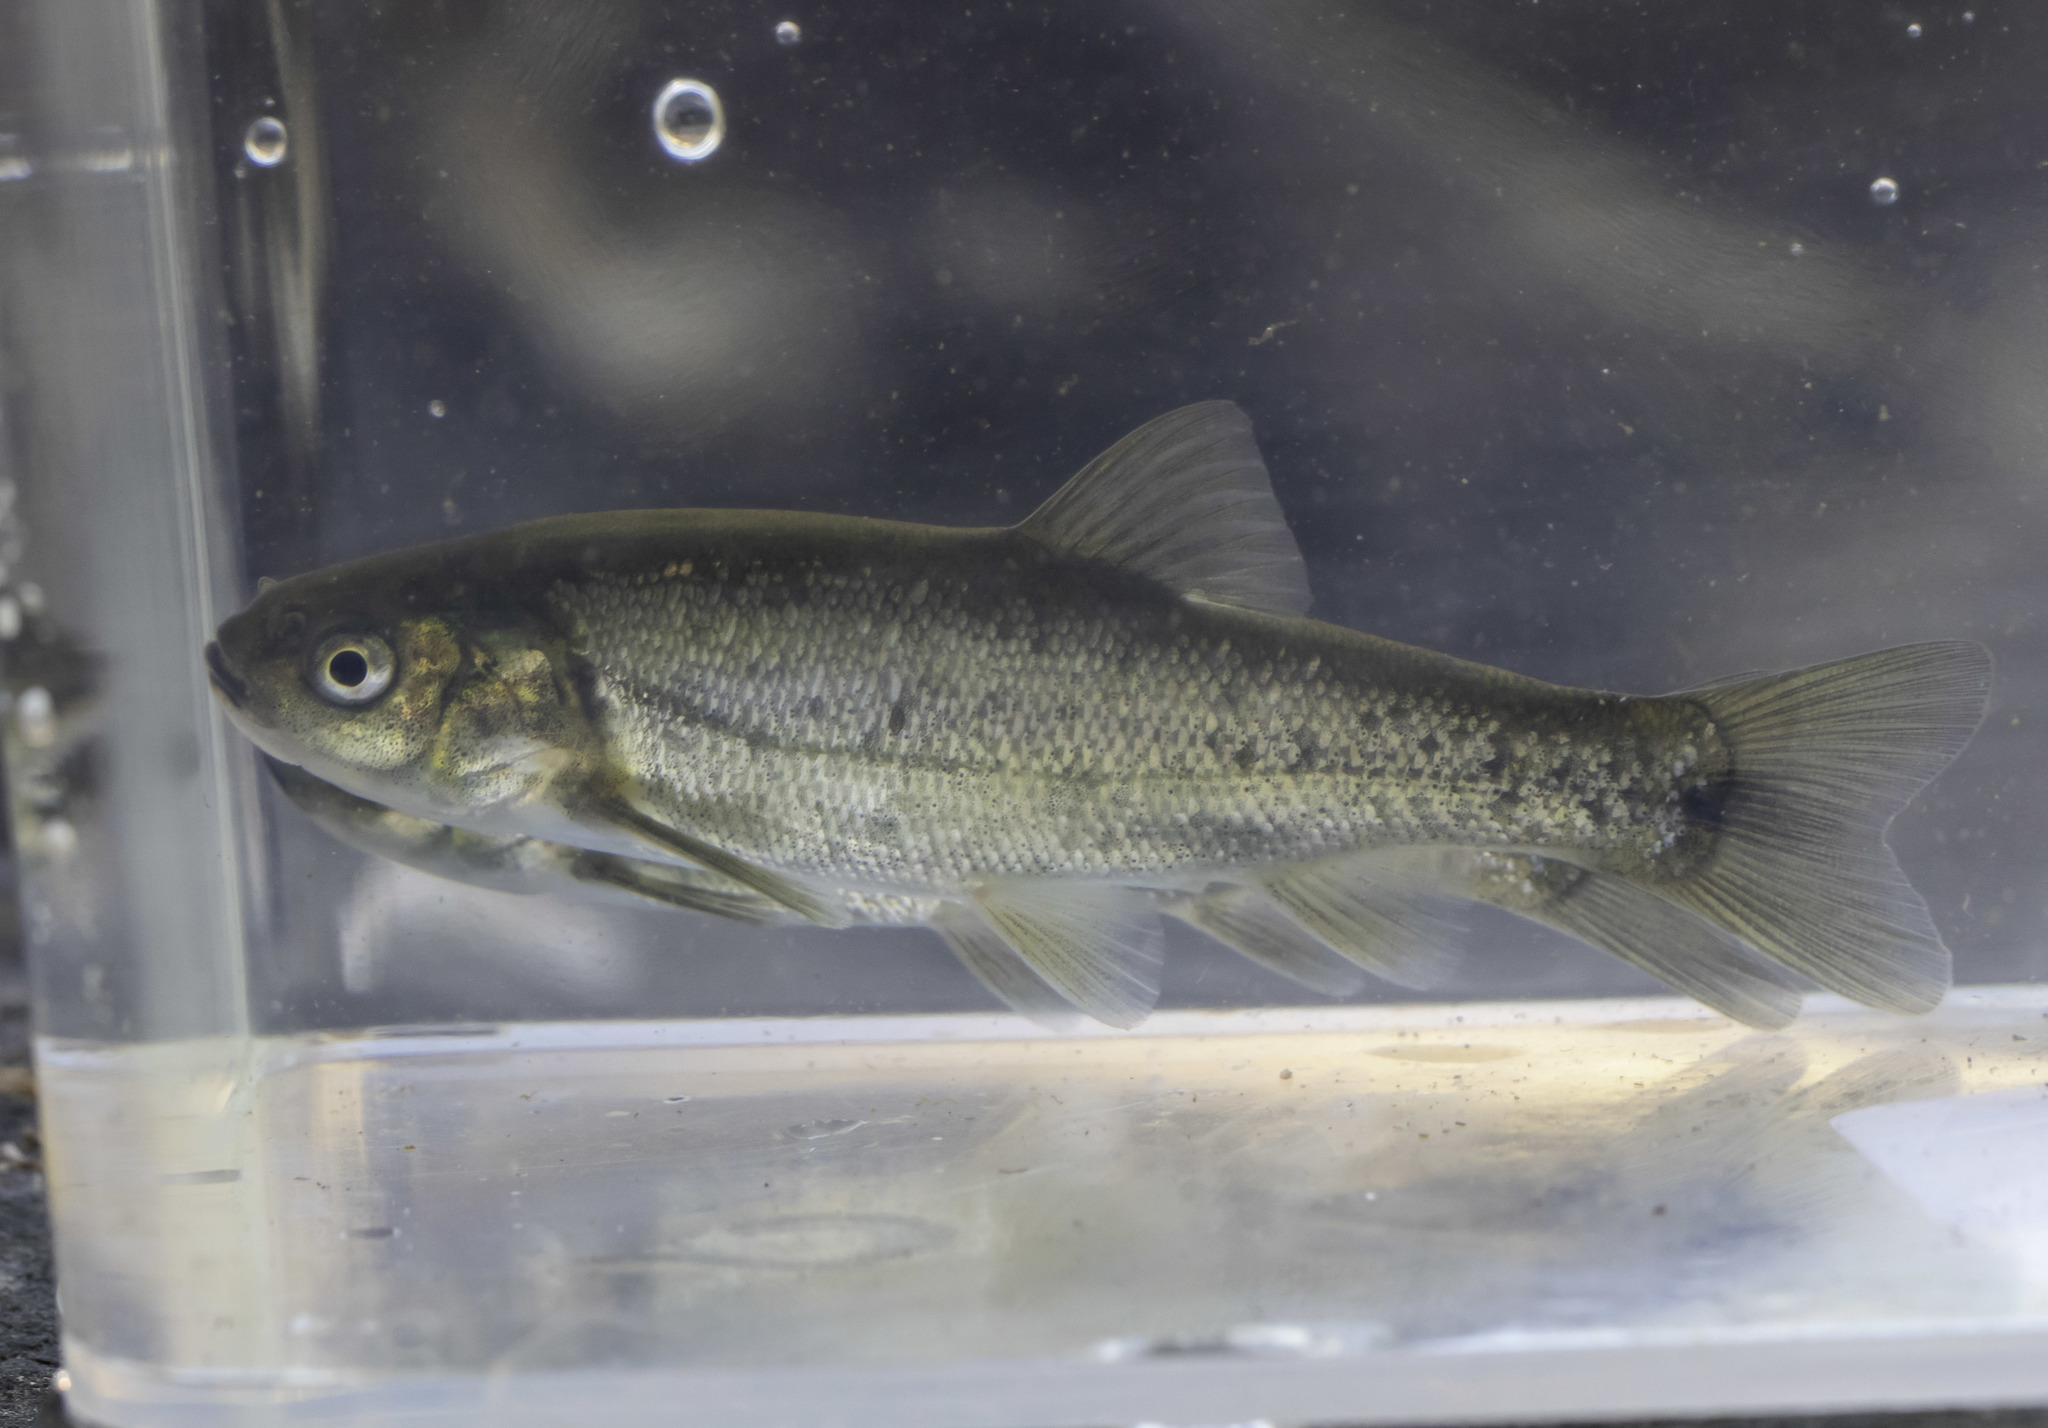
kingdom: Animalia
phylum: Chordata
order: Cypriniformes
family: Cyprinidae
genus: Gila
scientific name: Gila orcuttii
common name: Arroyo chub
